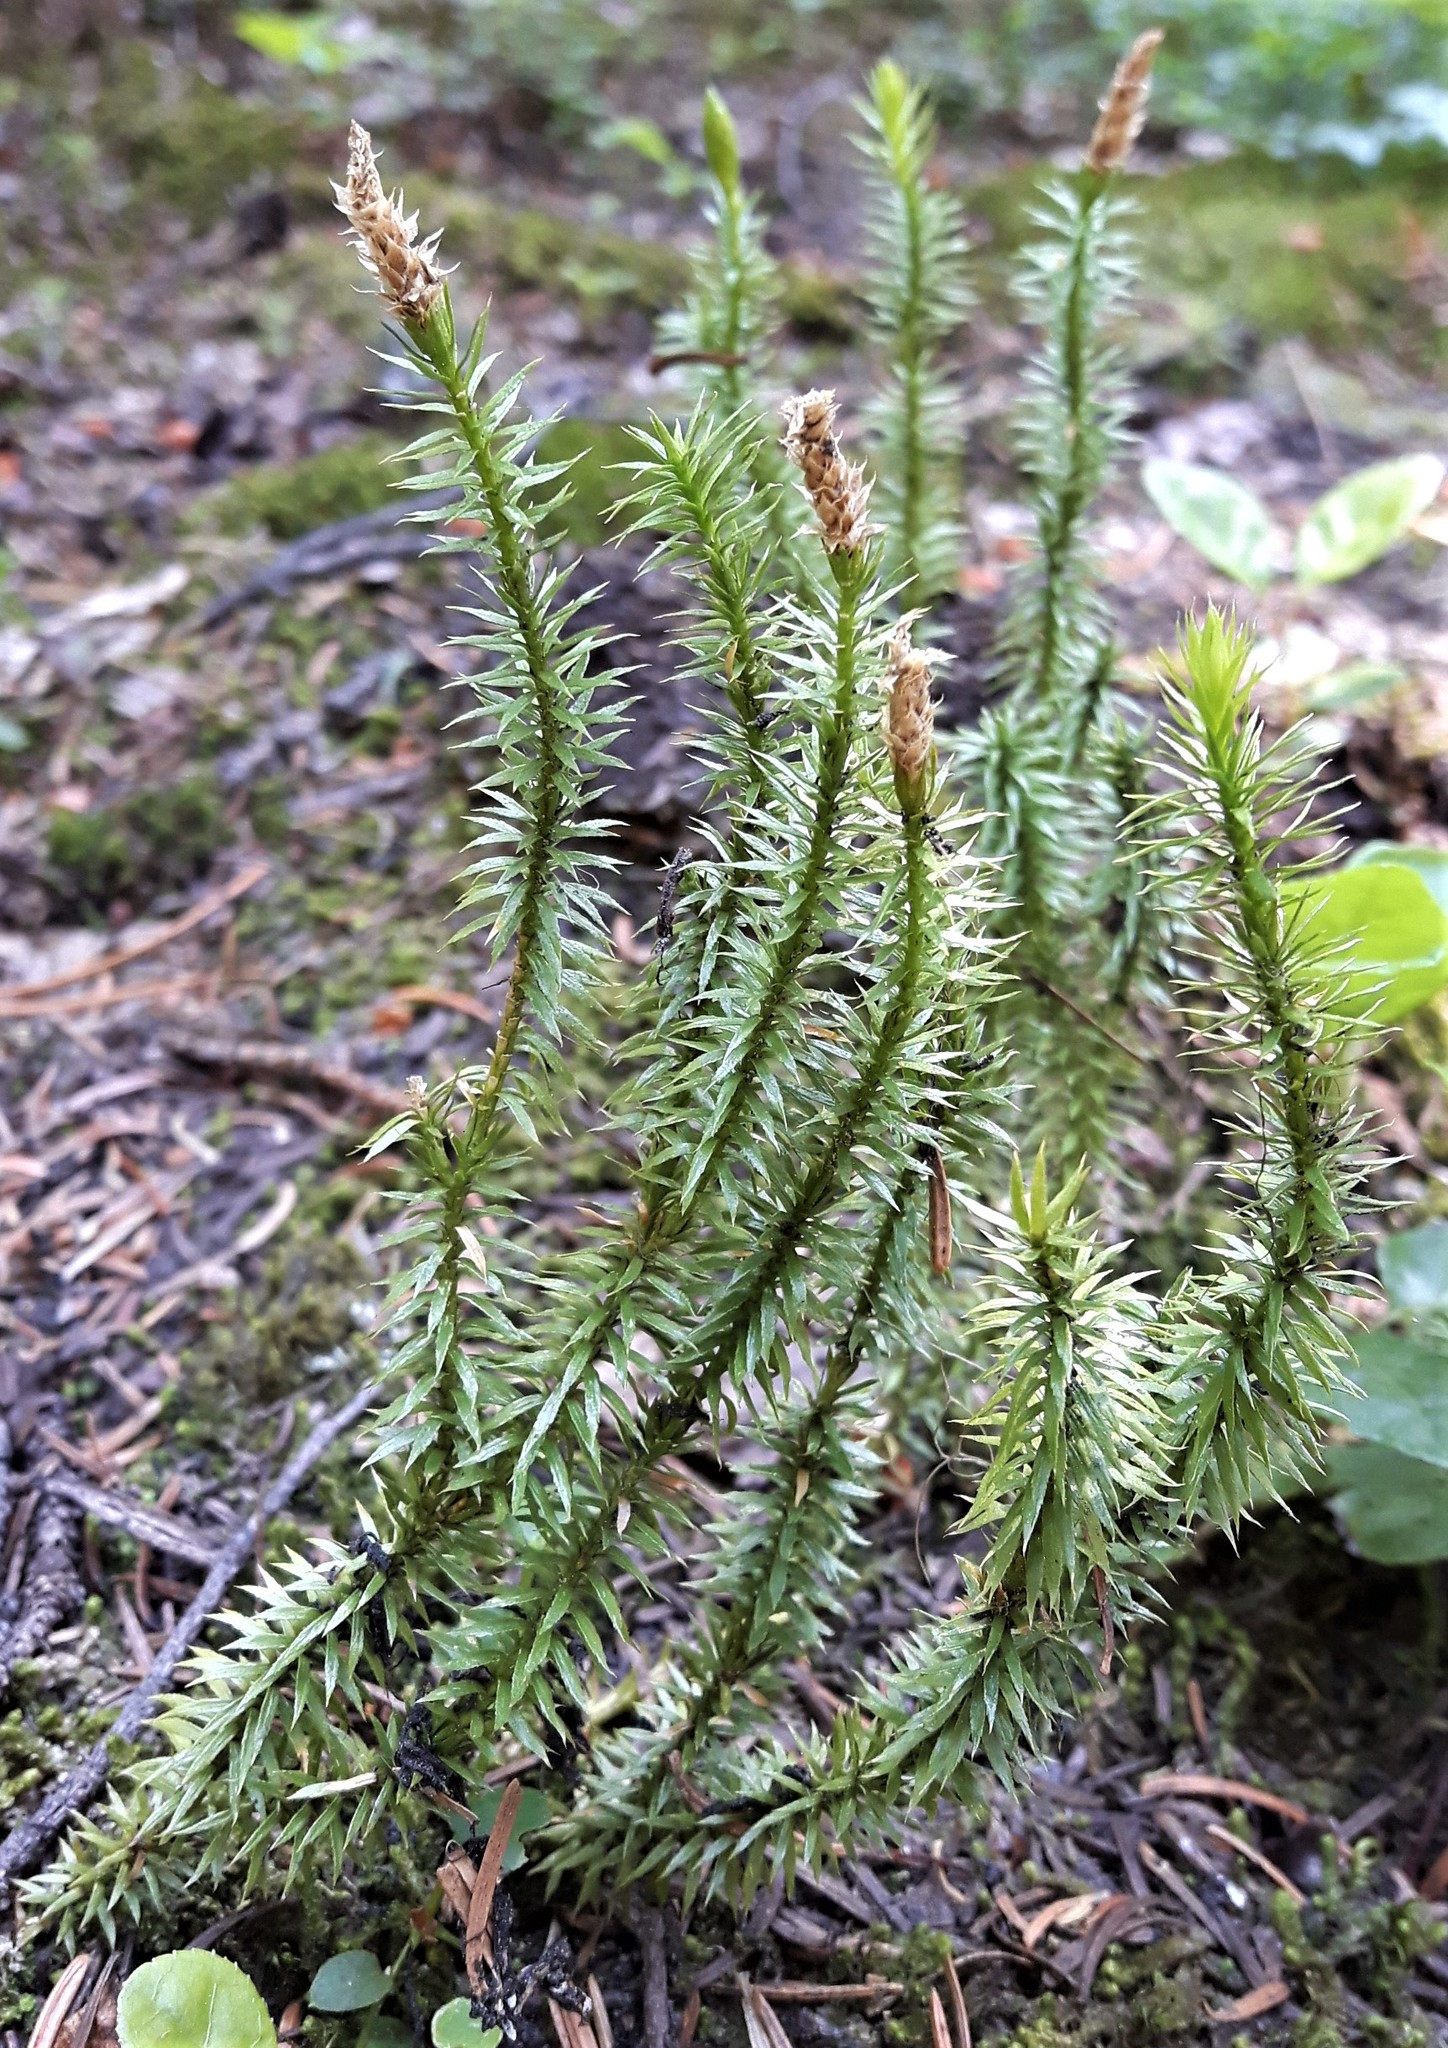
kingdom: Plantae
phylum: Tracheophyta
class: Lycopodiopsida
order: Lycopodiales
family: Lycopodiaceae
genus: Spinulum
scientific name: Spinulum annotinum
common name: Interrupted club-moss
